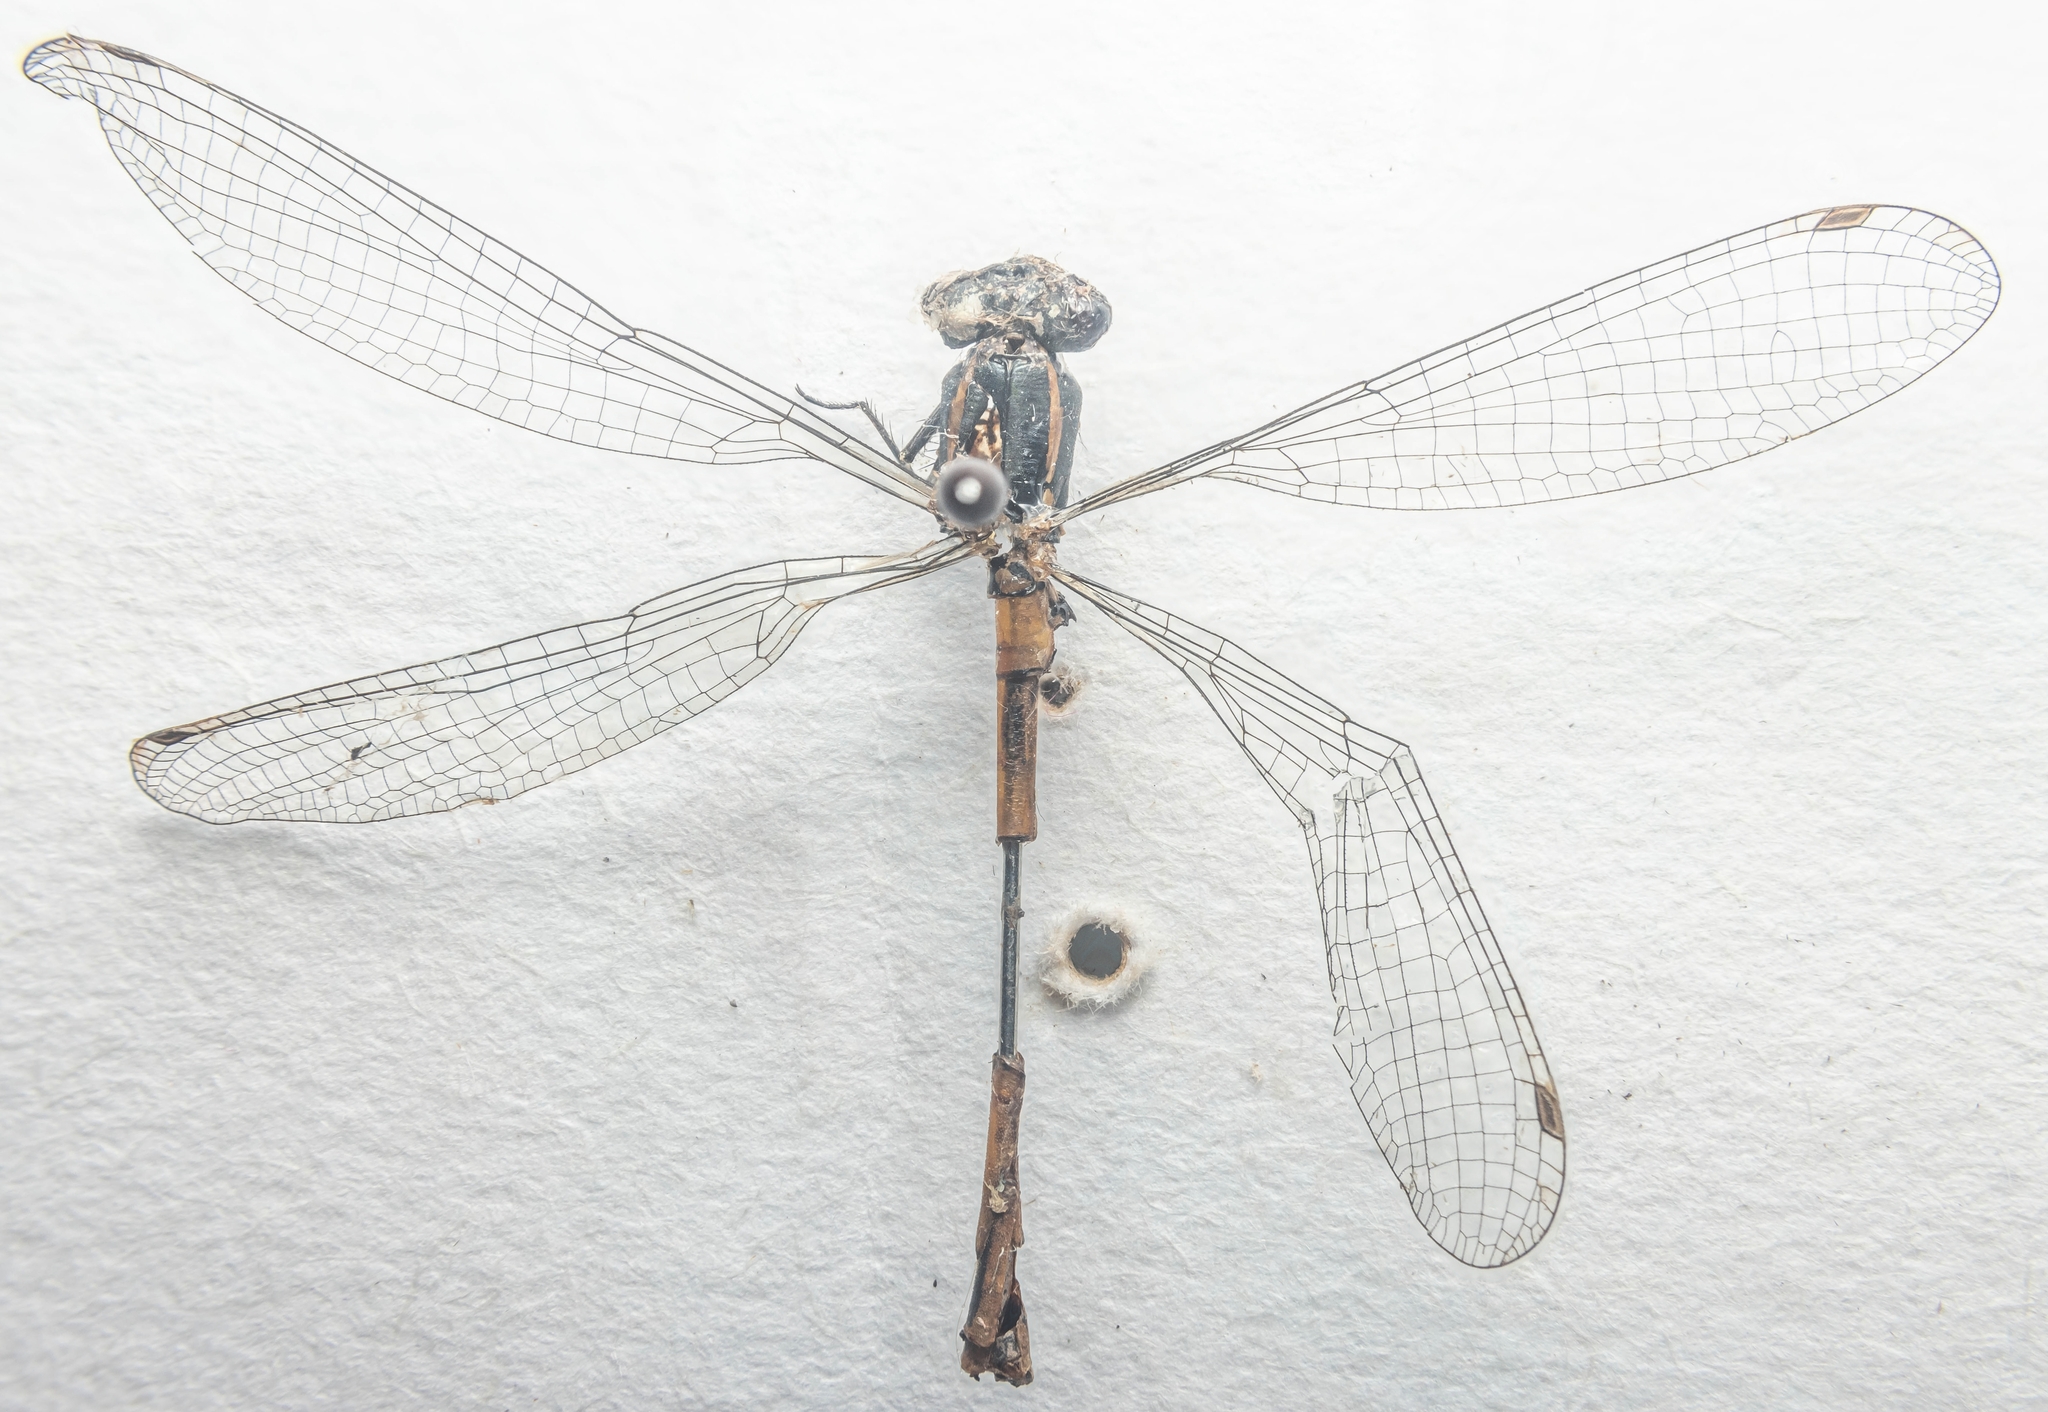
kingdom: Animalia
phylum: Arthropoda
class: Insecta
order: Odonata
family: Coenagrionidae
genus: Pyrrhosoma
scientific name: Pyrrhosoma nymphula
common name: Large red damsel
